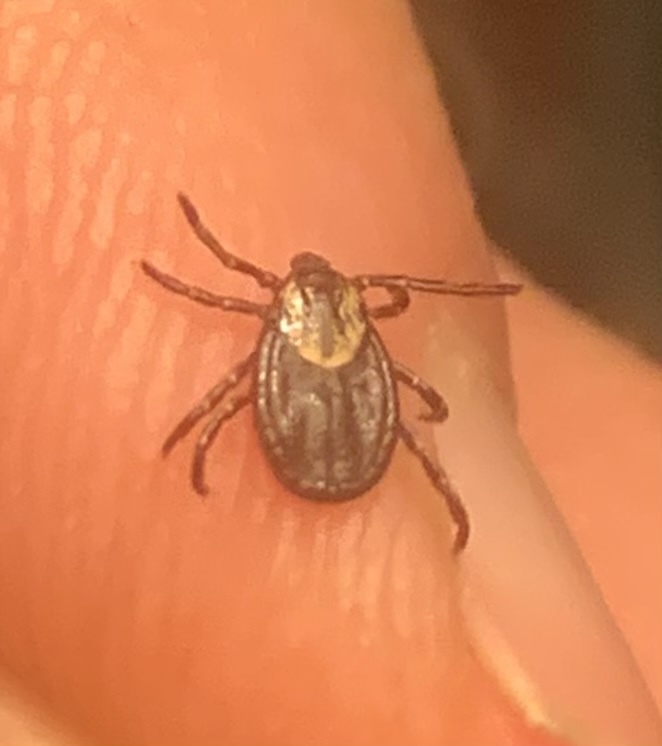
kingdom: Animalia
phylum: Arthropoda
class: Arachnida
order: Ixodida
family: Ixodidae
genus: Dermacentor
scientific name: Dermacentor variabilis
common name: American dog tick
